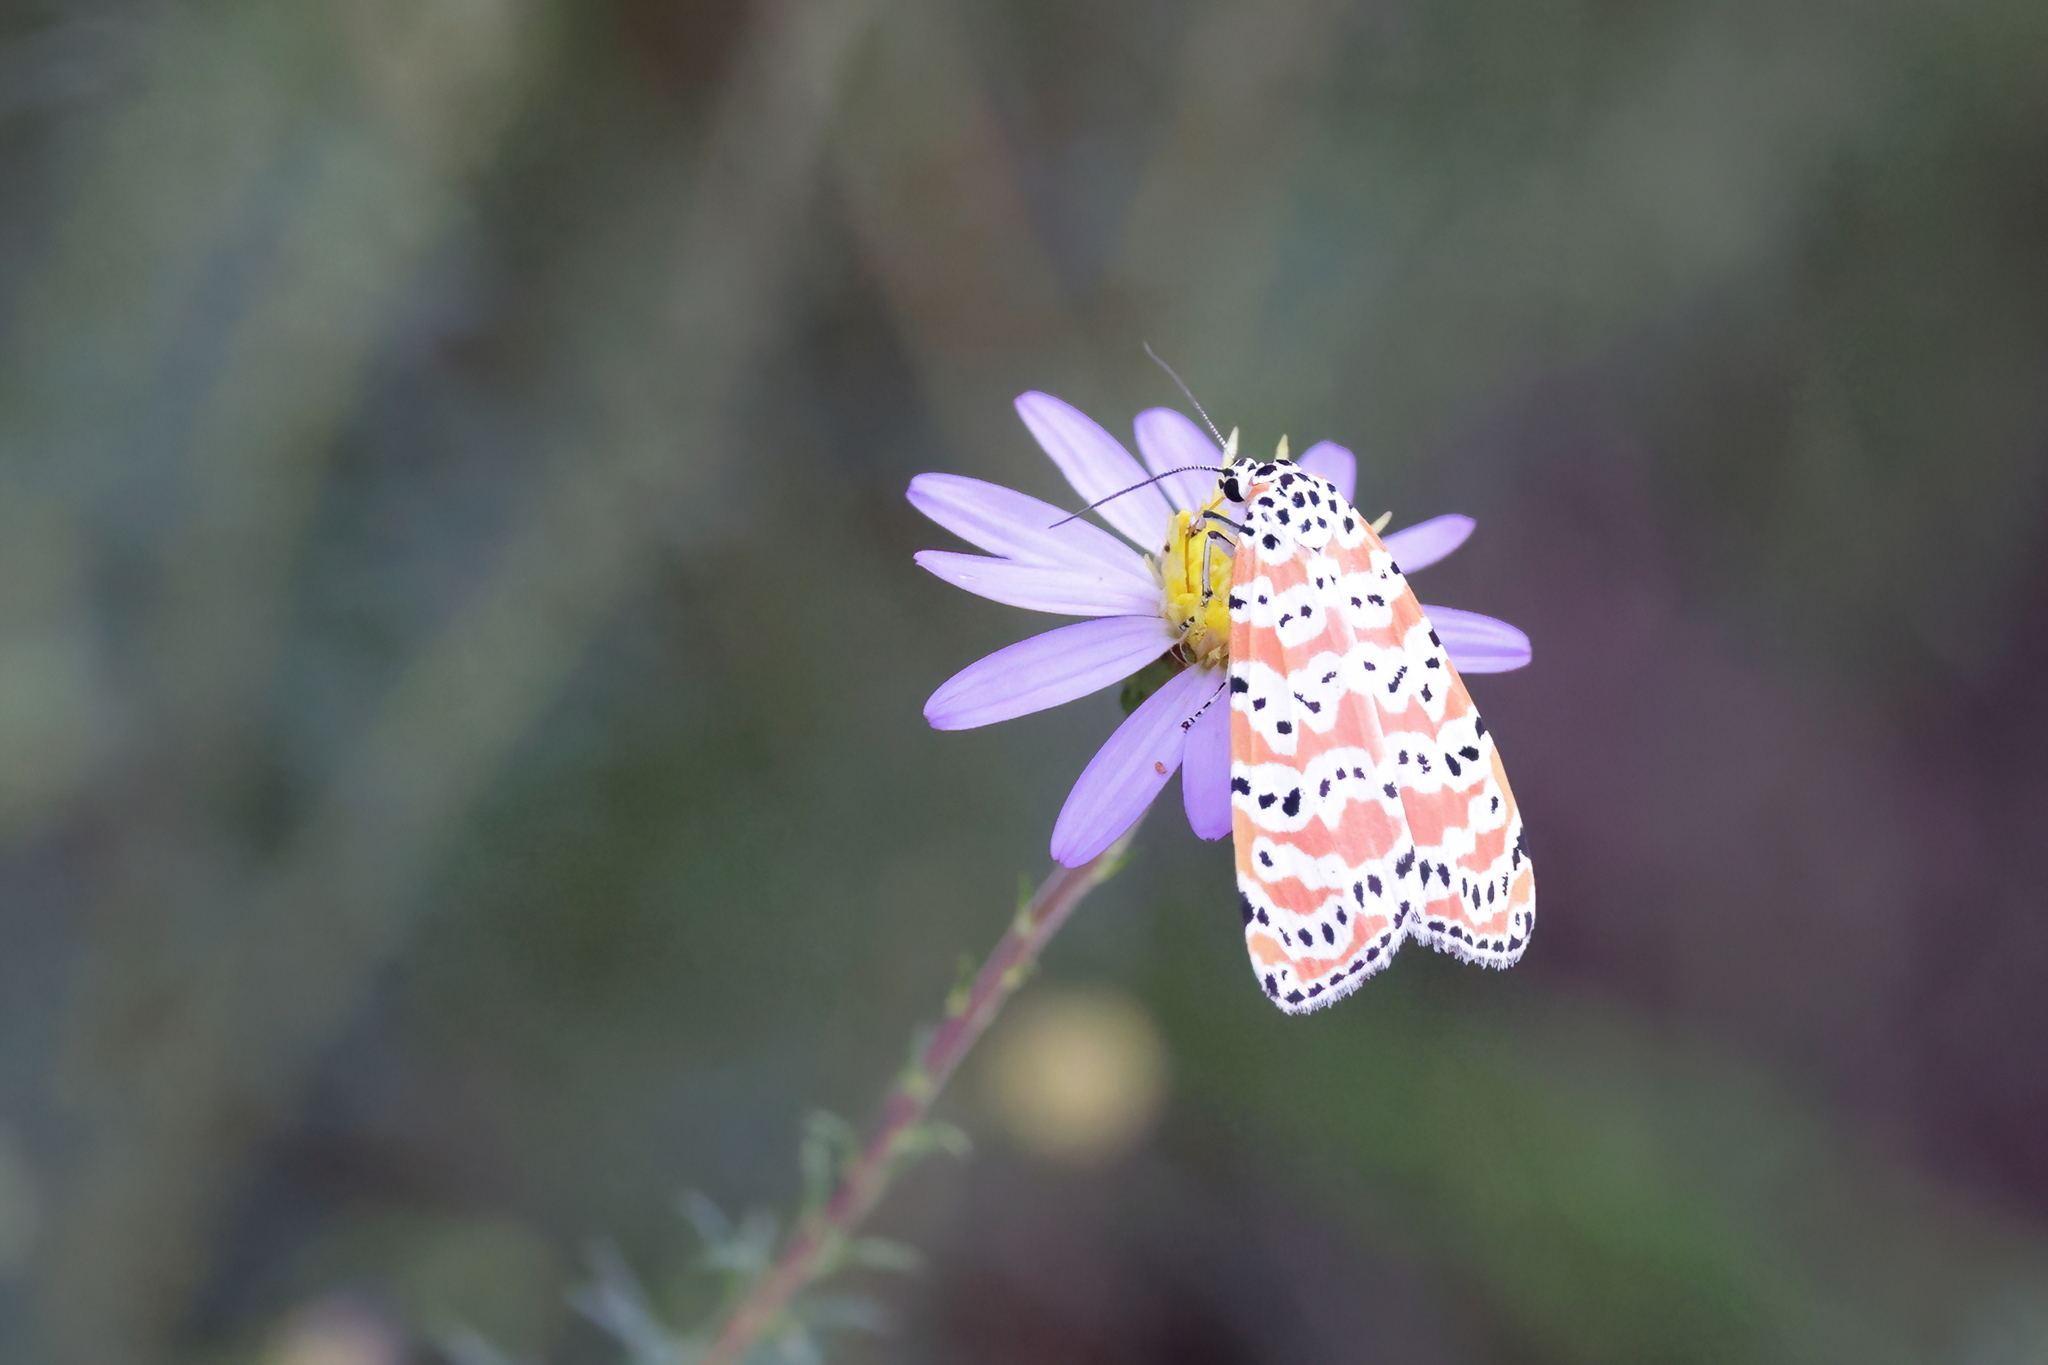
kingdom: Animalia
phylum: Arthropoda
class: Insecta
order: Lepidoptera
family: Erebidae
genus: Utetheisa
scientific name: Utetheisa ornatrix
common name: Beautiful utetheisa
